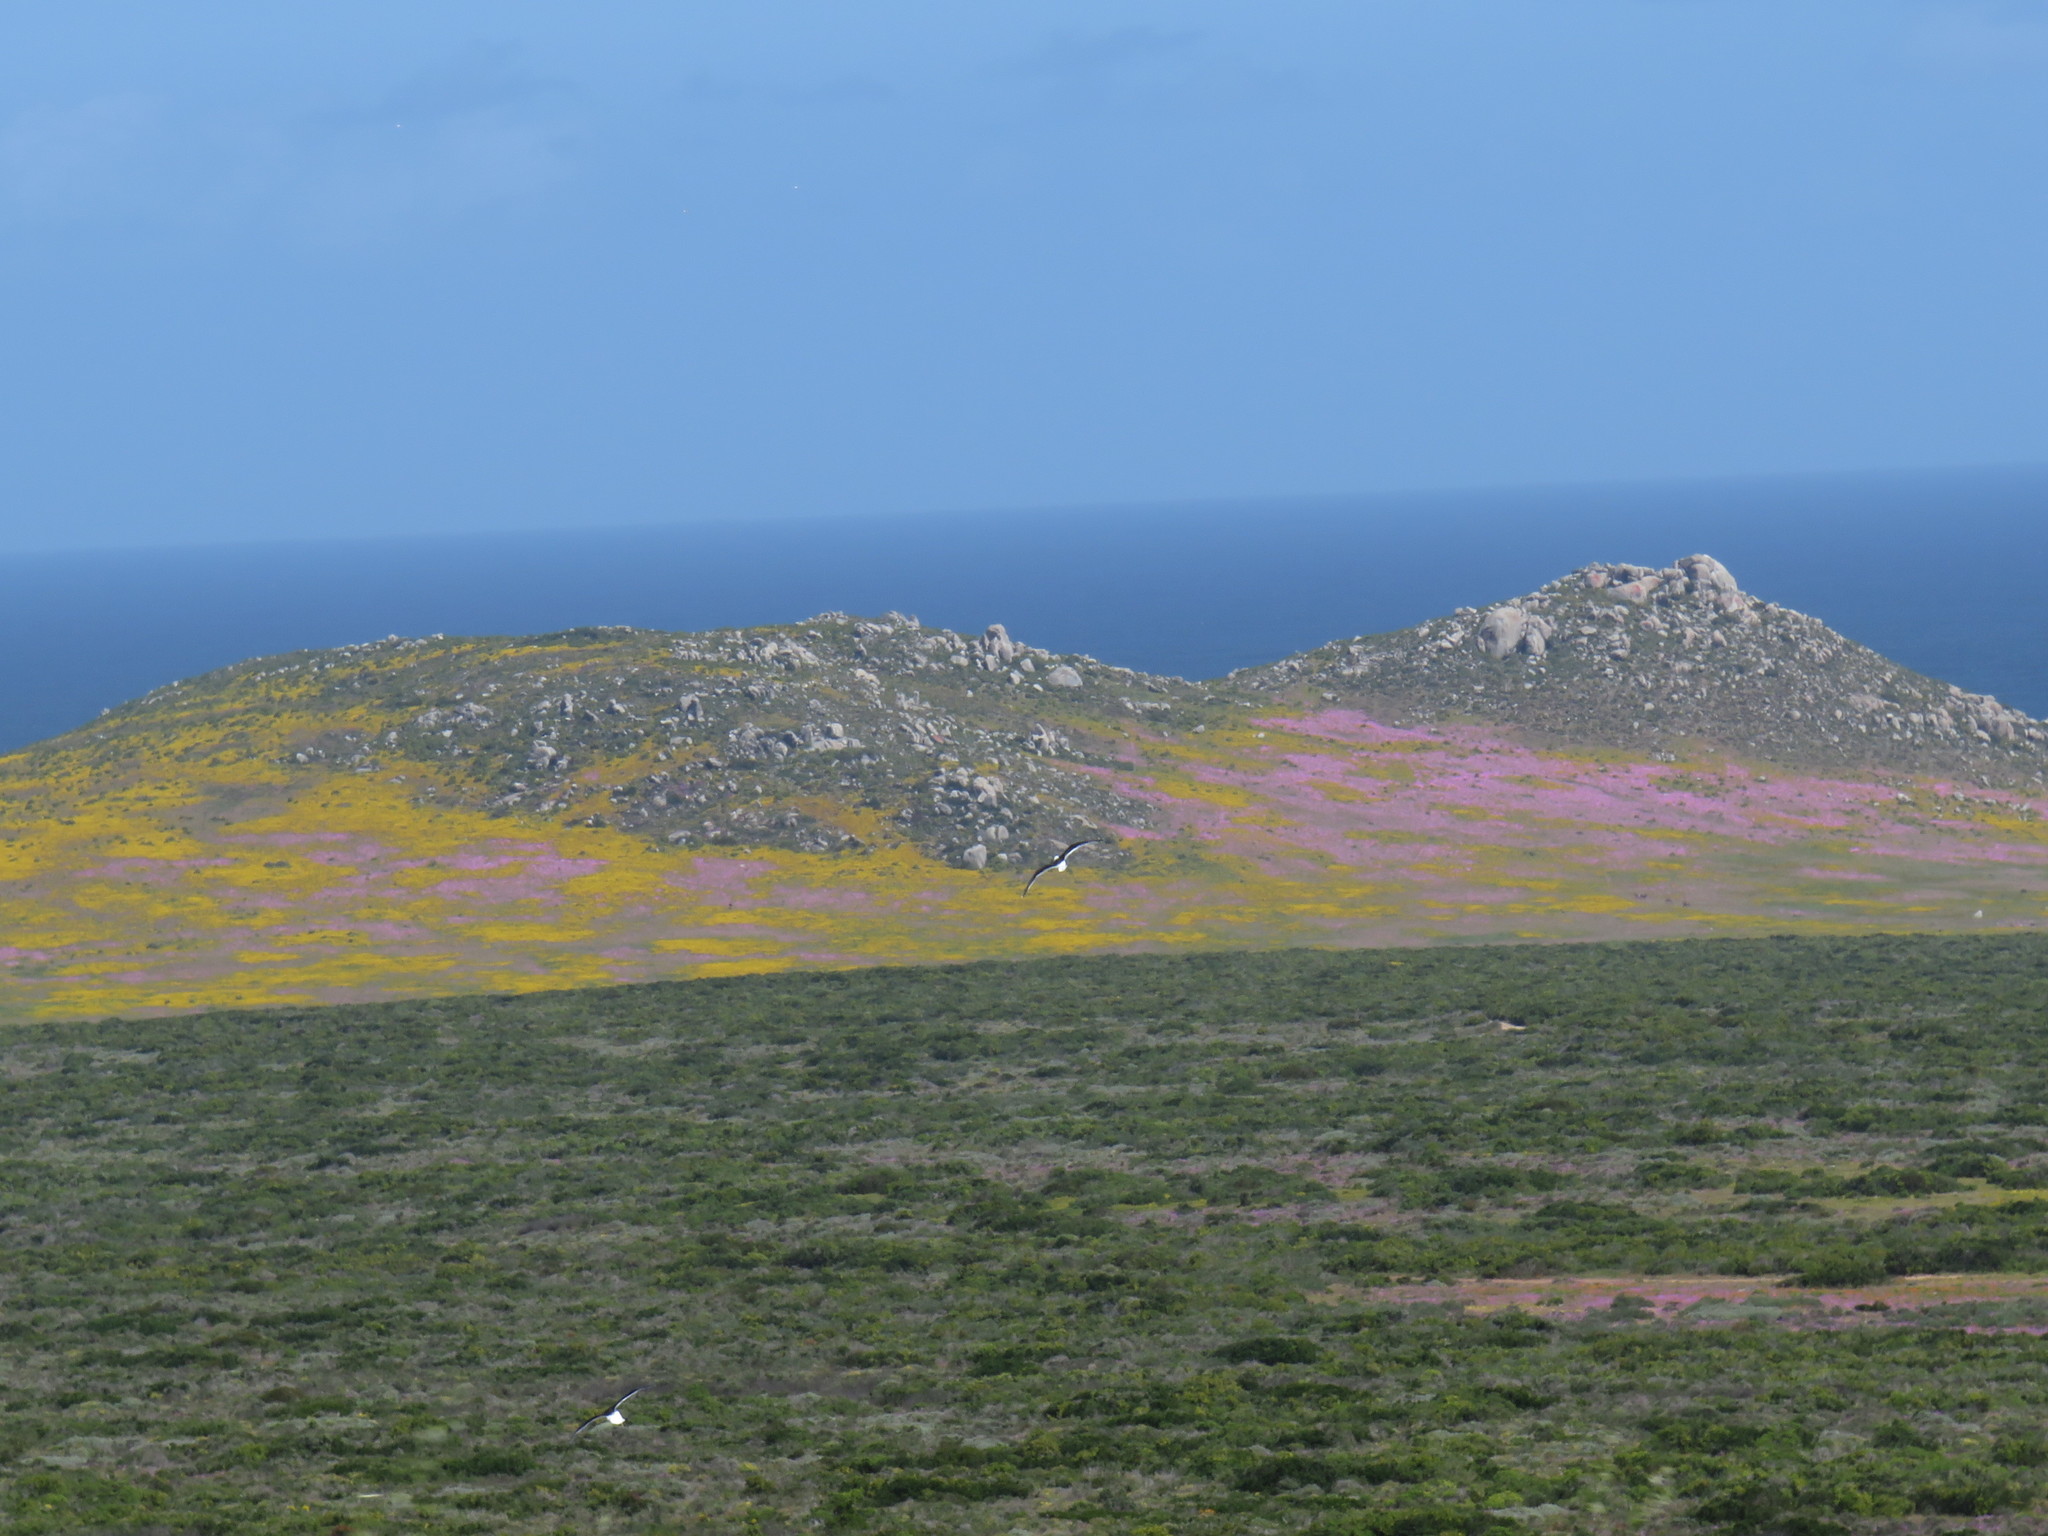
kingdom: Animalia
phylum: Chordata
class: Aves
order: Charadriiformes
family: Laridae
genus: Larus
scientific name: Larus dominicanus
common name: Kelp gull
